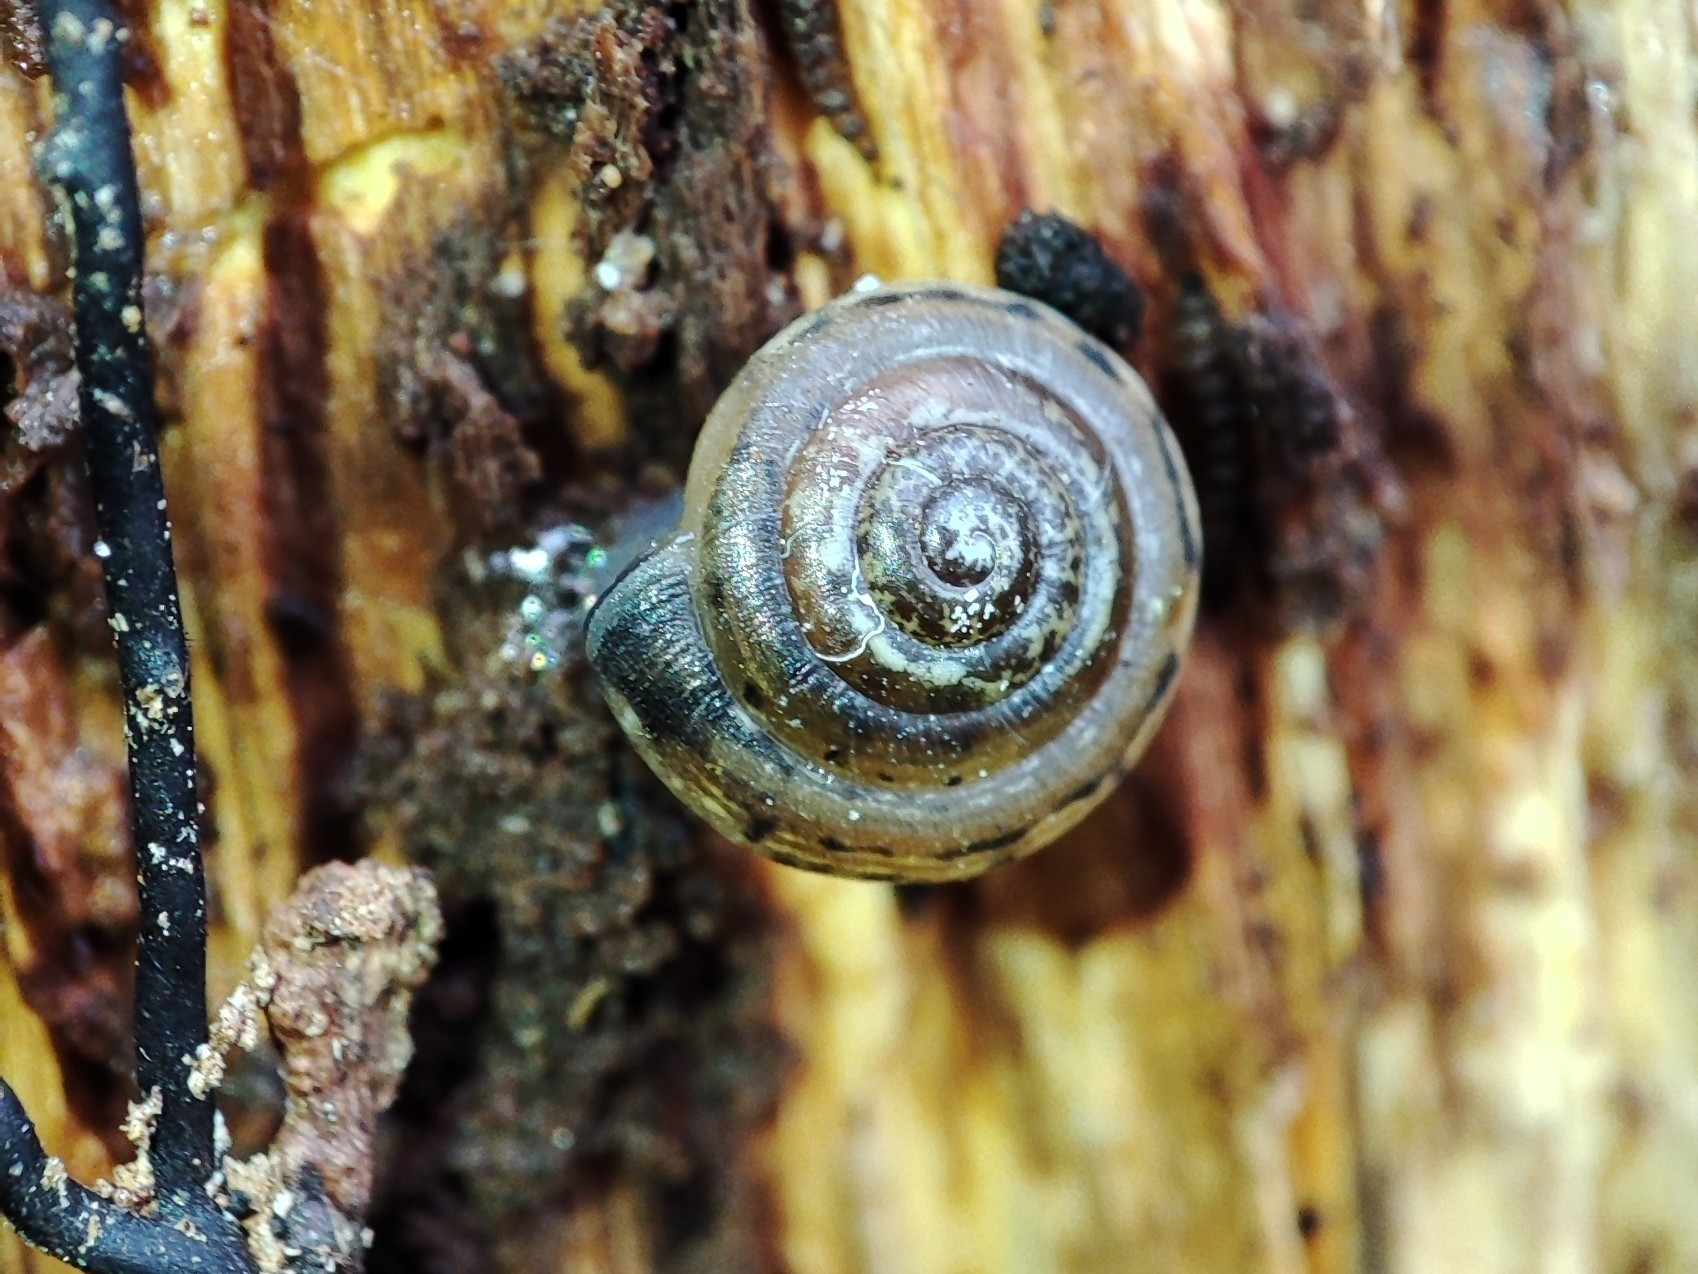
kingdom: Animalia
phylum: Mollusca
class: Gastropoda
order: Stylommatophora
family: Hygromiidae
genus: Perforatella
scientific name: Perforatella bidentata
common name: Double-tooth hairy snail
